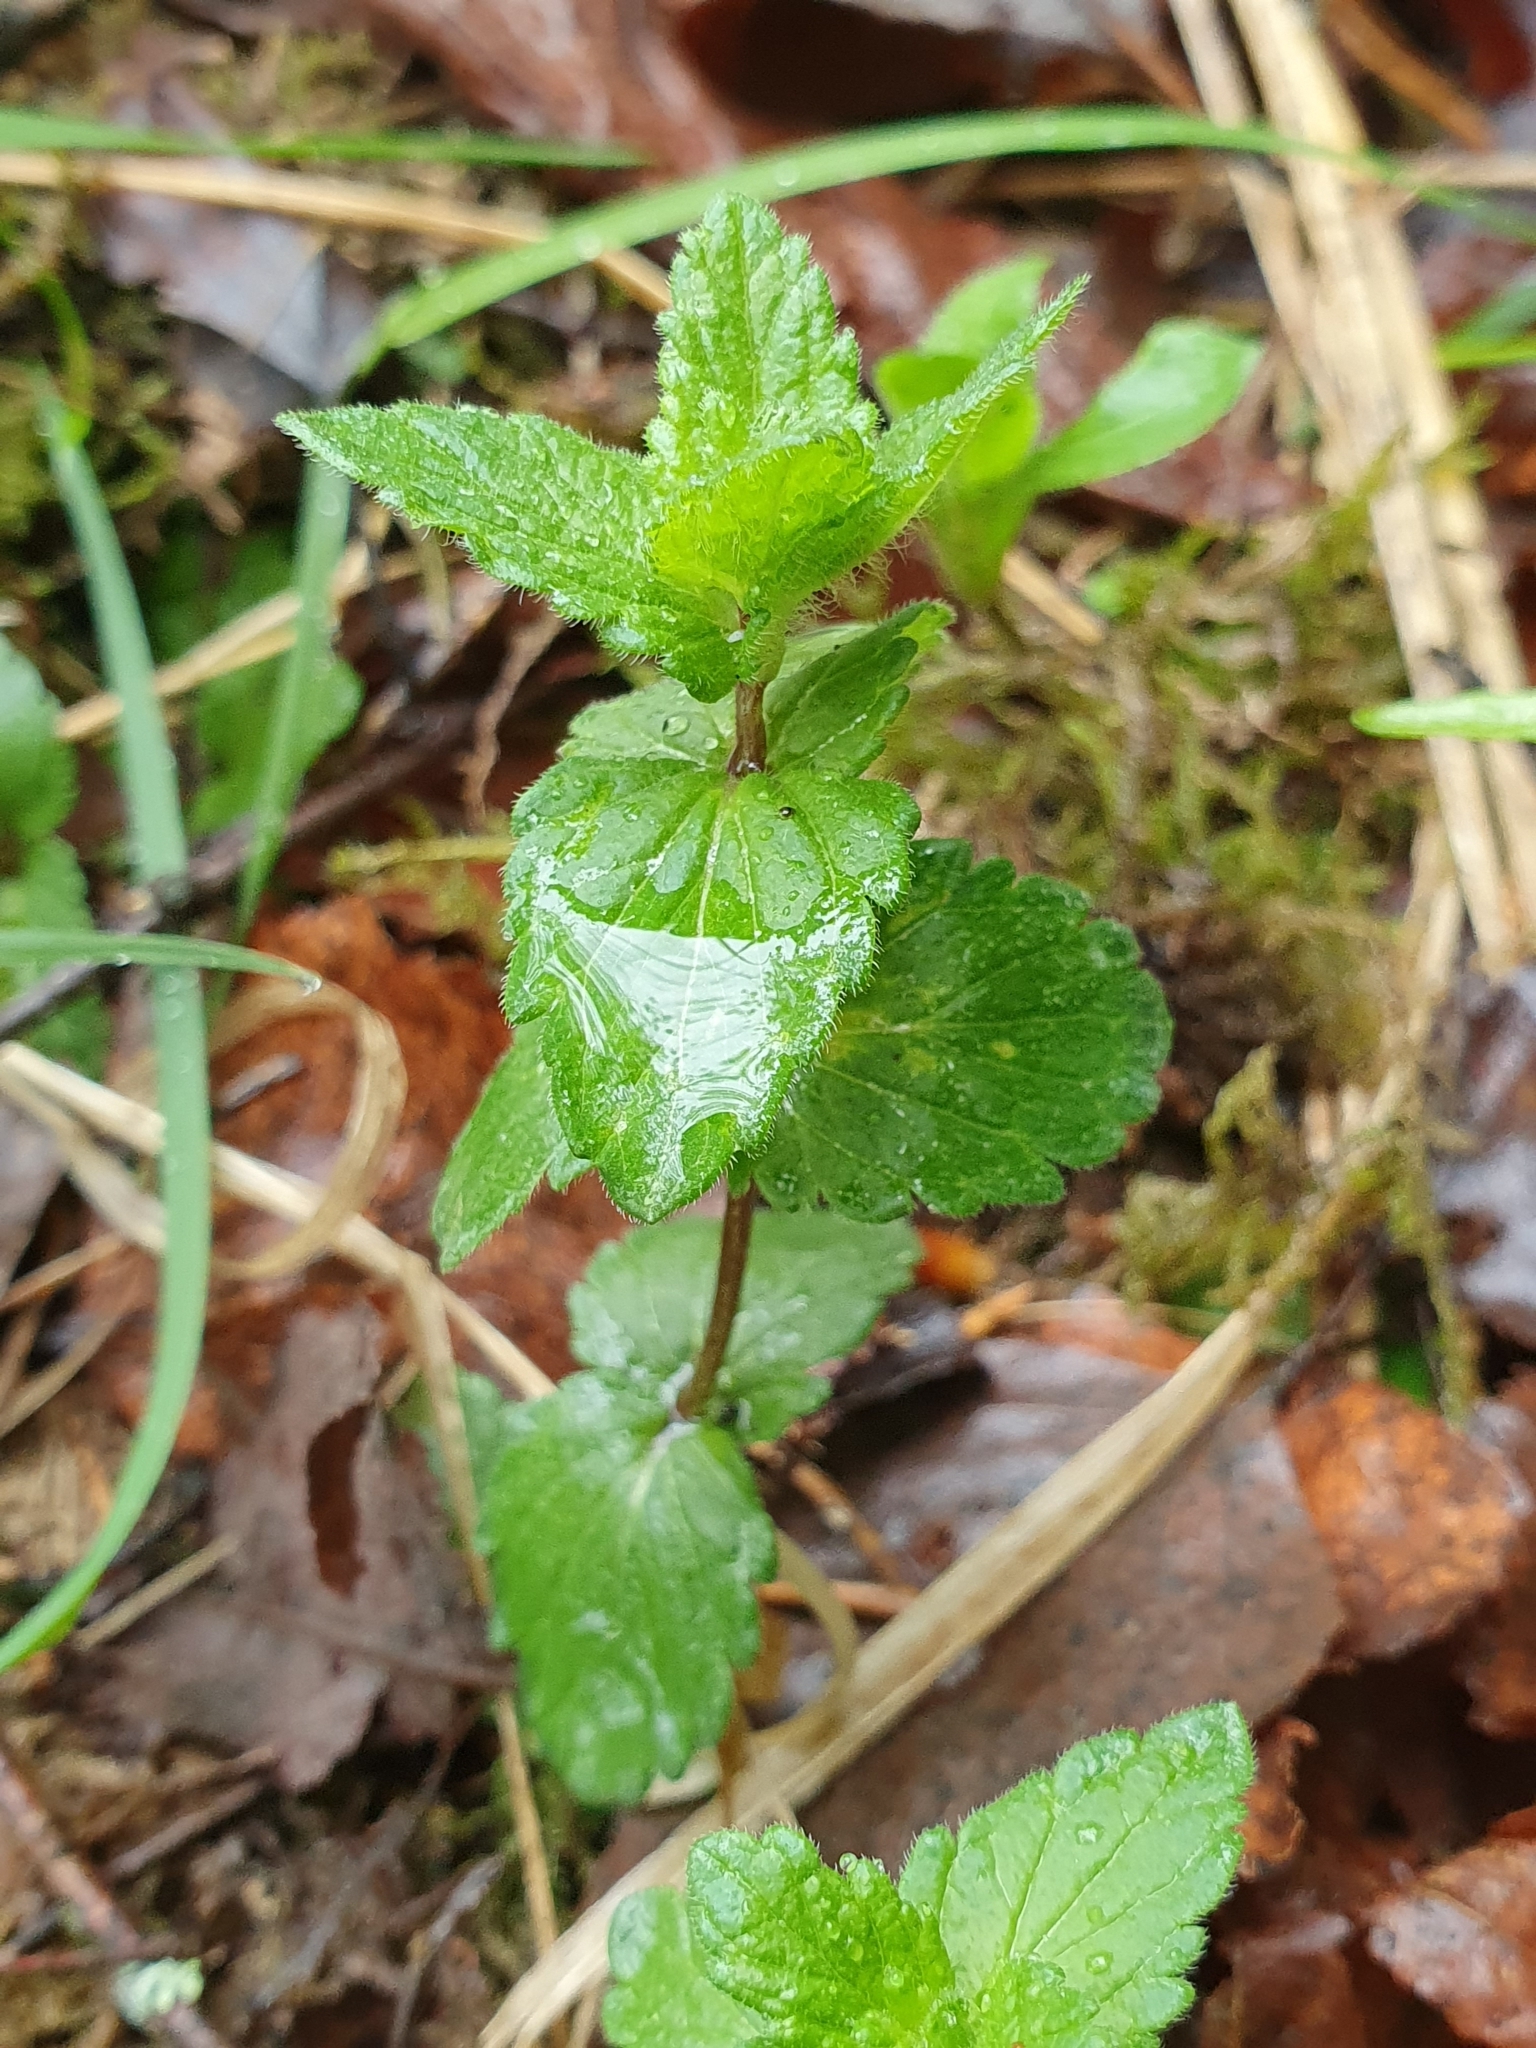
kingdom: Plantae
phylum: Tracheophyta
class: Magnoliopsida
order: Lamiales
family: Plantaginaceae
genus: Veronica
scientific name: Veronica chamaedrys
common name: Germander speedwell
